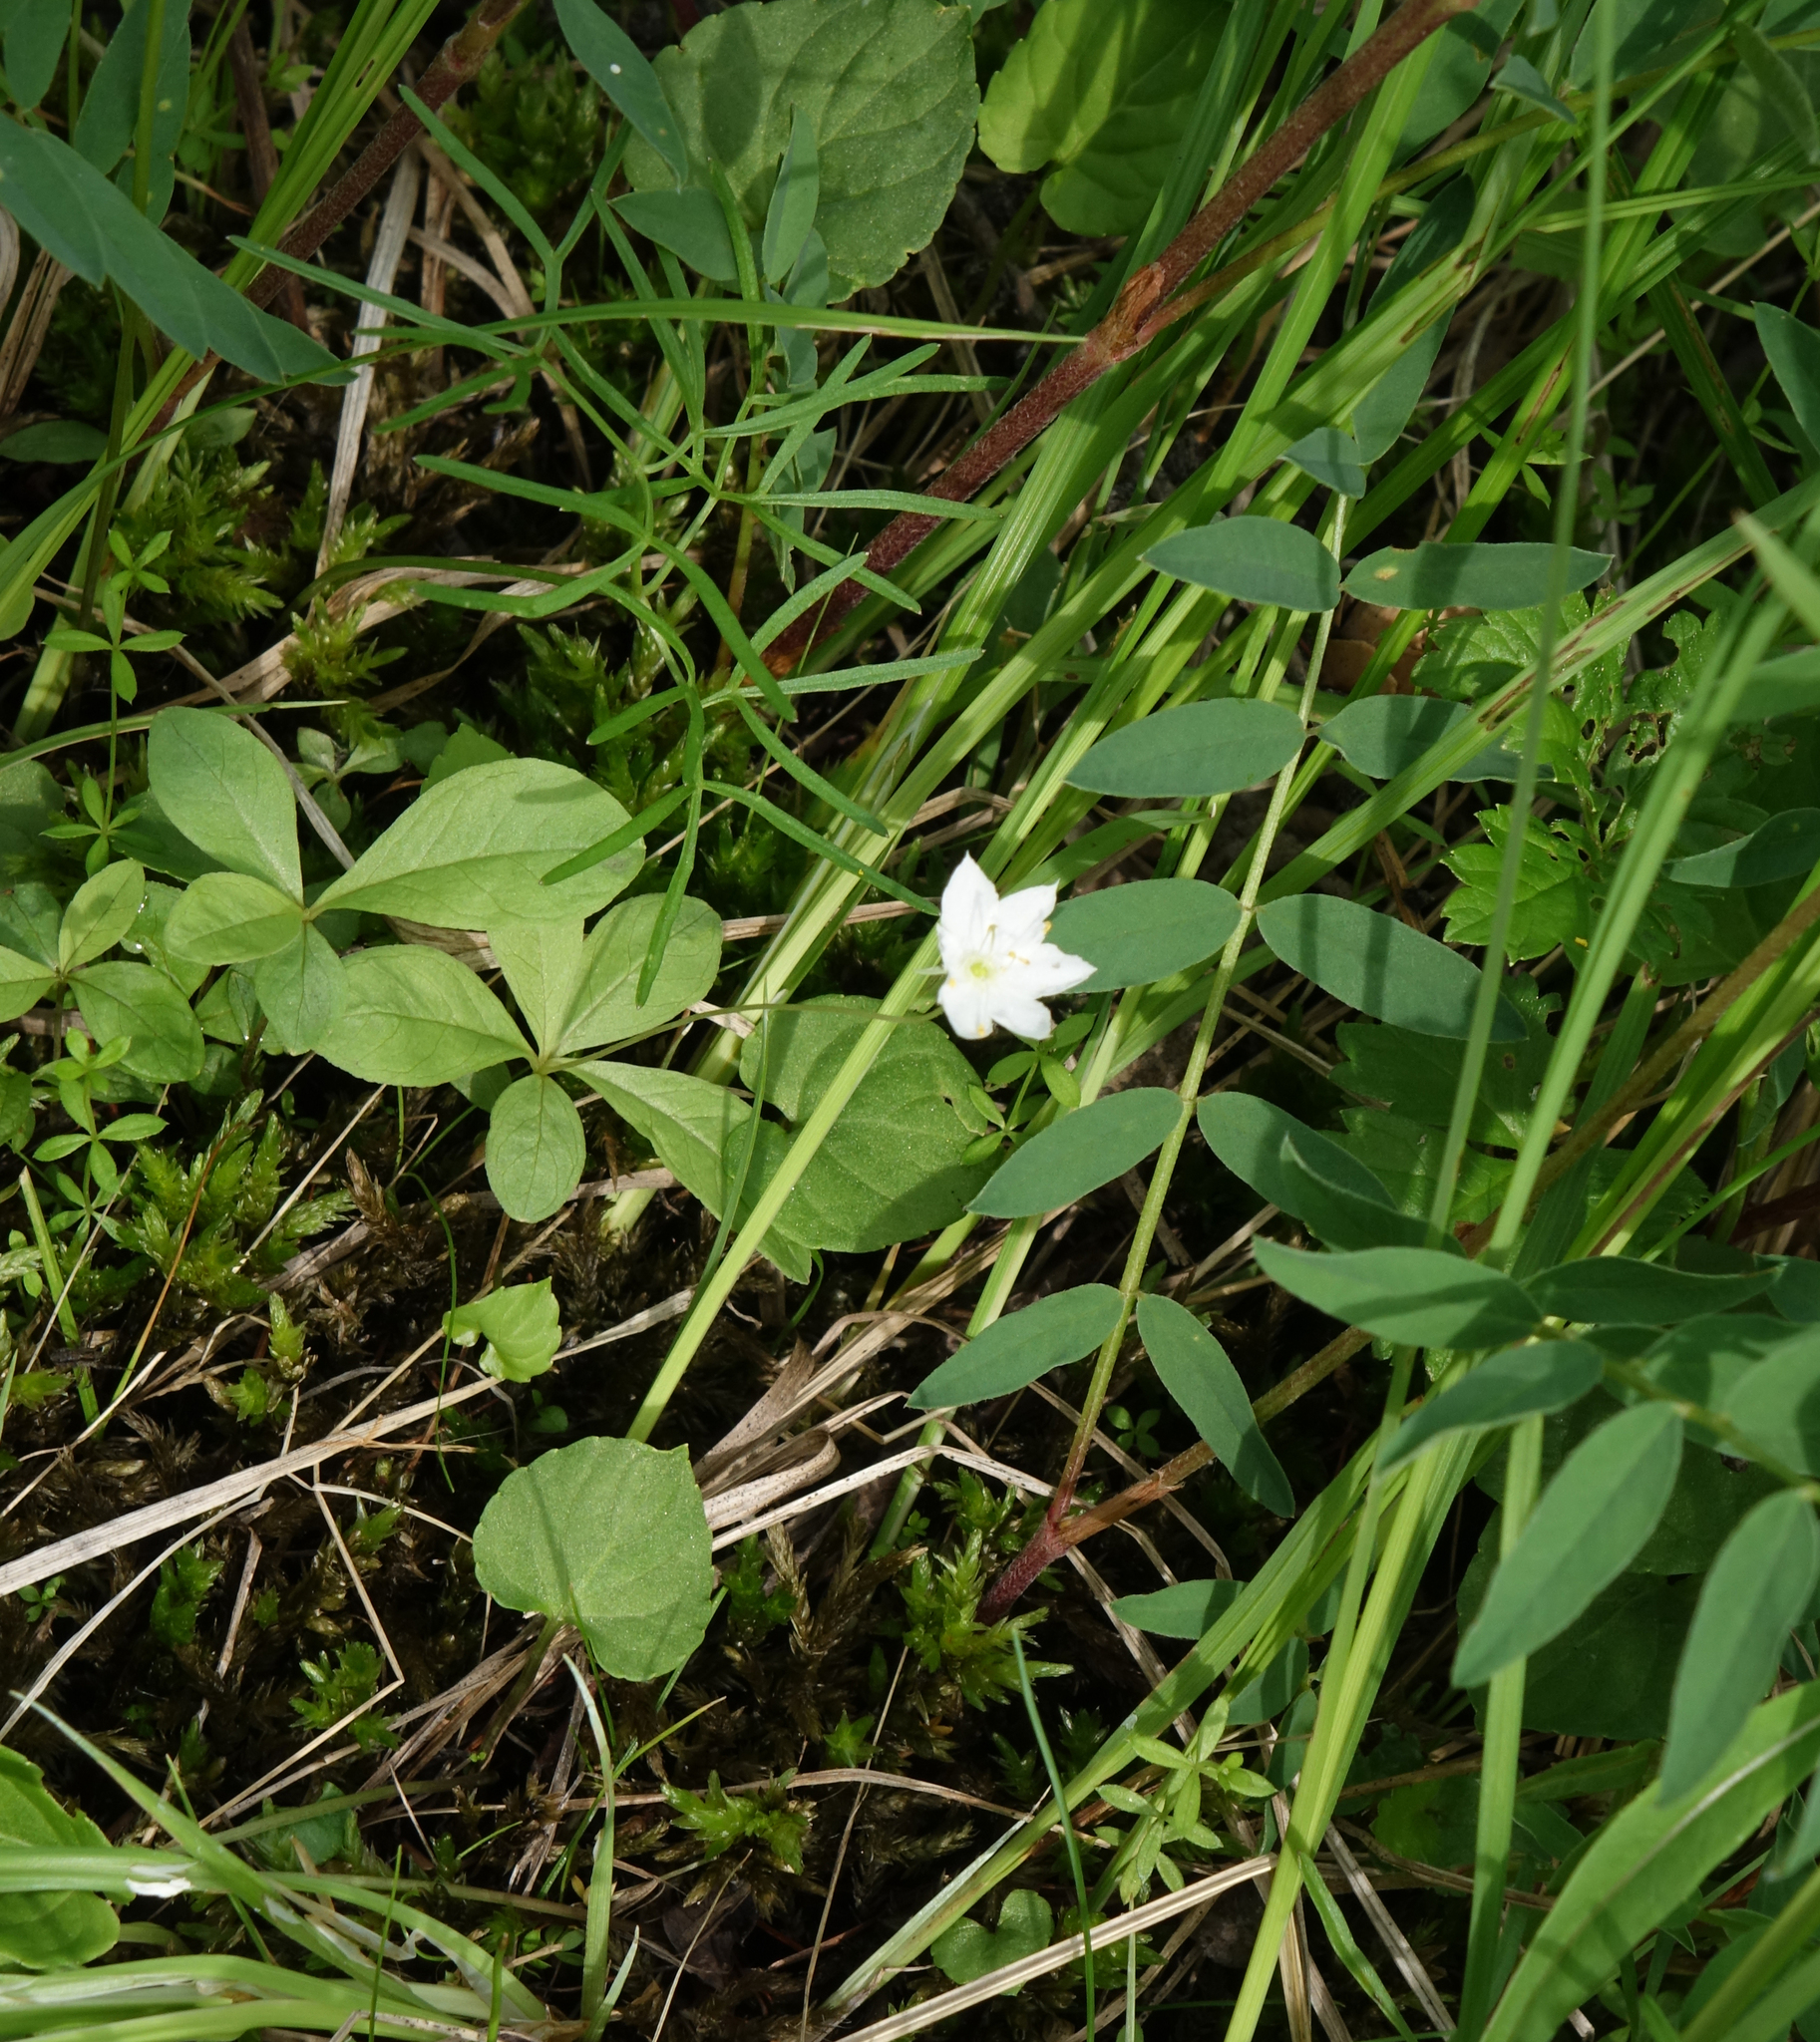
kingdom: Plantae
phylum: Tracheophyta
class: Magnoliopsida
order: Ericales
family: Primulaceae
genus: Lysimachia
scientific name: Lysimachia europaea
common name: Arctic starflower
